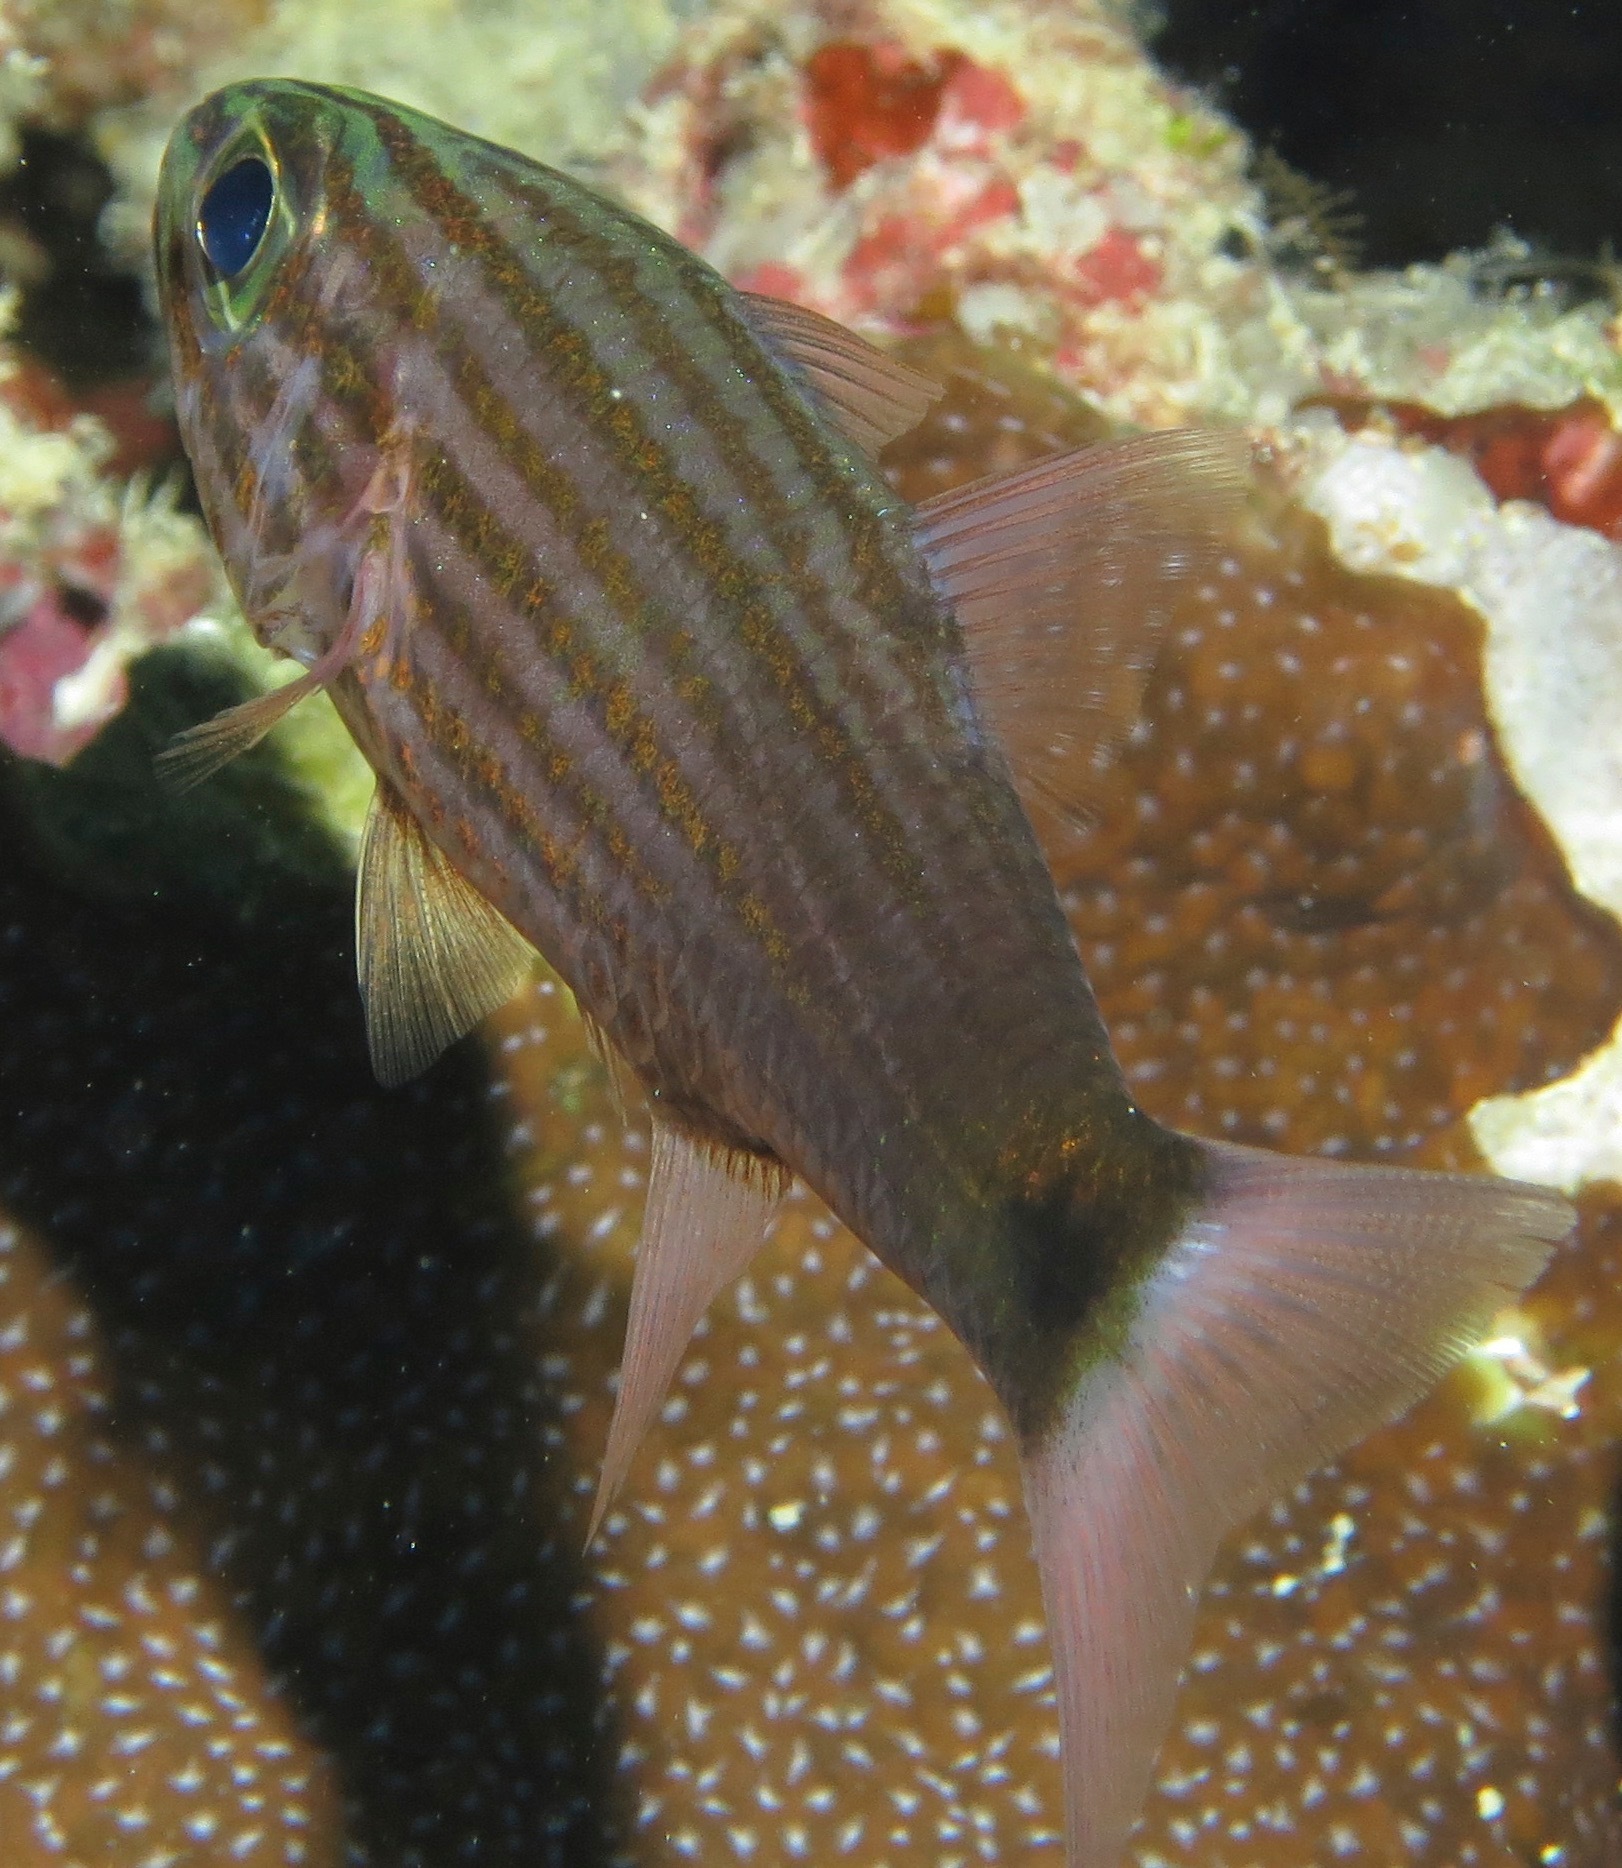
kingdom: Animalia
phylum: Chordata
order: Perciformes
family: Apogonidae
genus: Cheilodipterus
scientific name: Cheilodipterus artus
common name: Wolf cardinal
